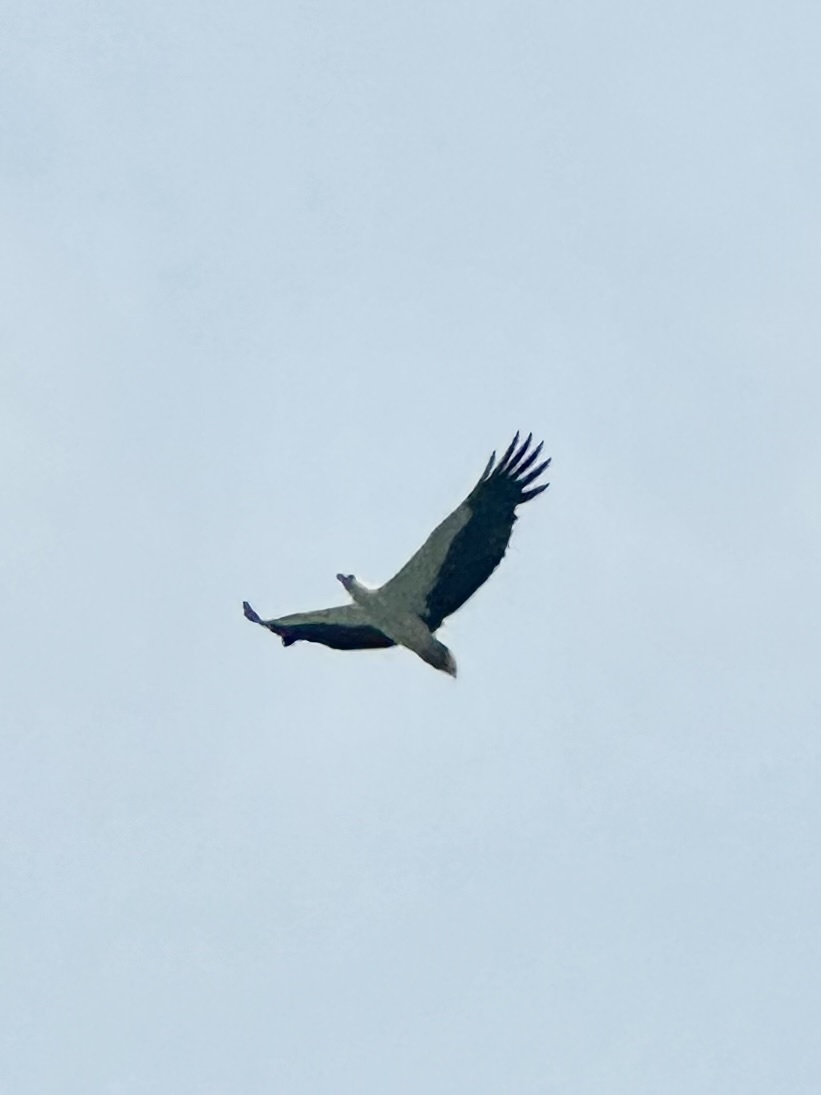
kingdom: Animalia
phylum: Chordata
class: Aves
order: Accipitriformes
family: Accipitridae
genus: Haliaeetus
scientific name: Haliaeetus leucogaster
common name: White-bellied sea eagle
